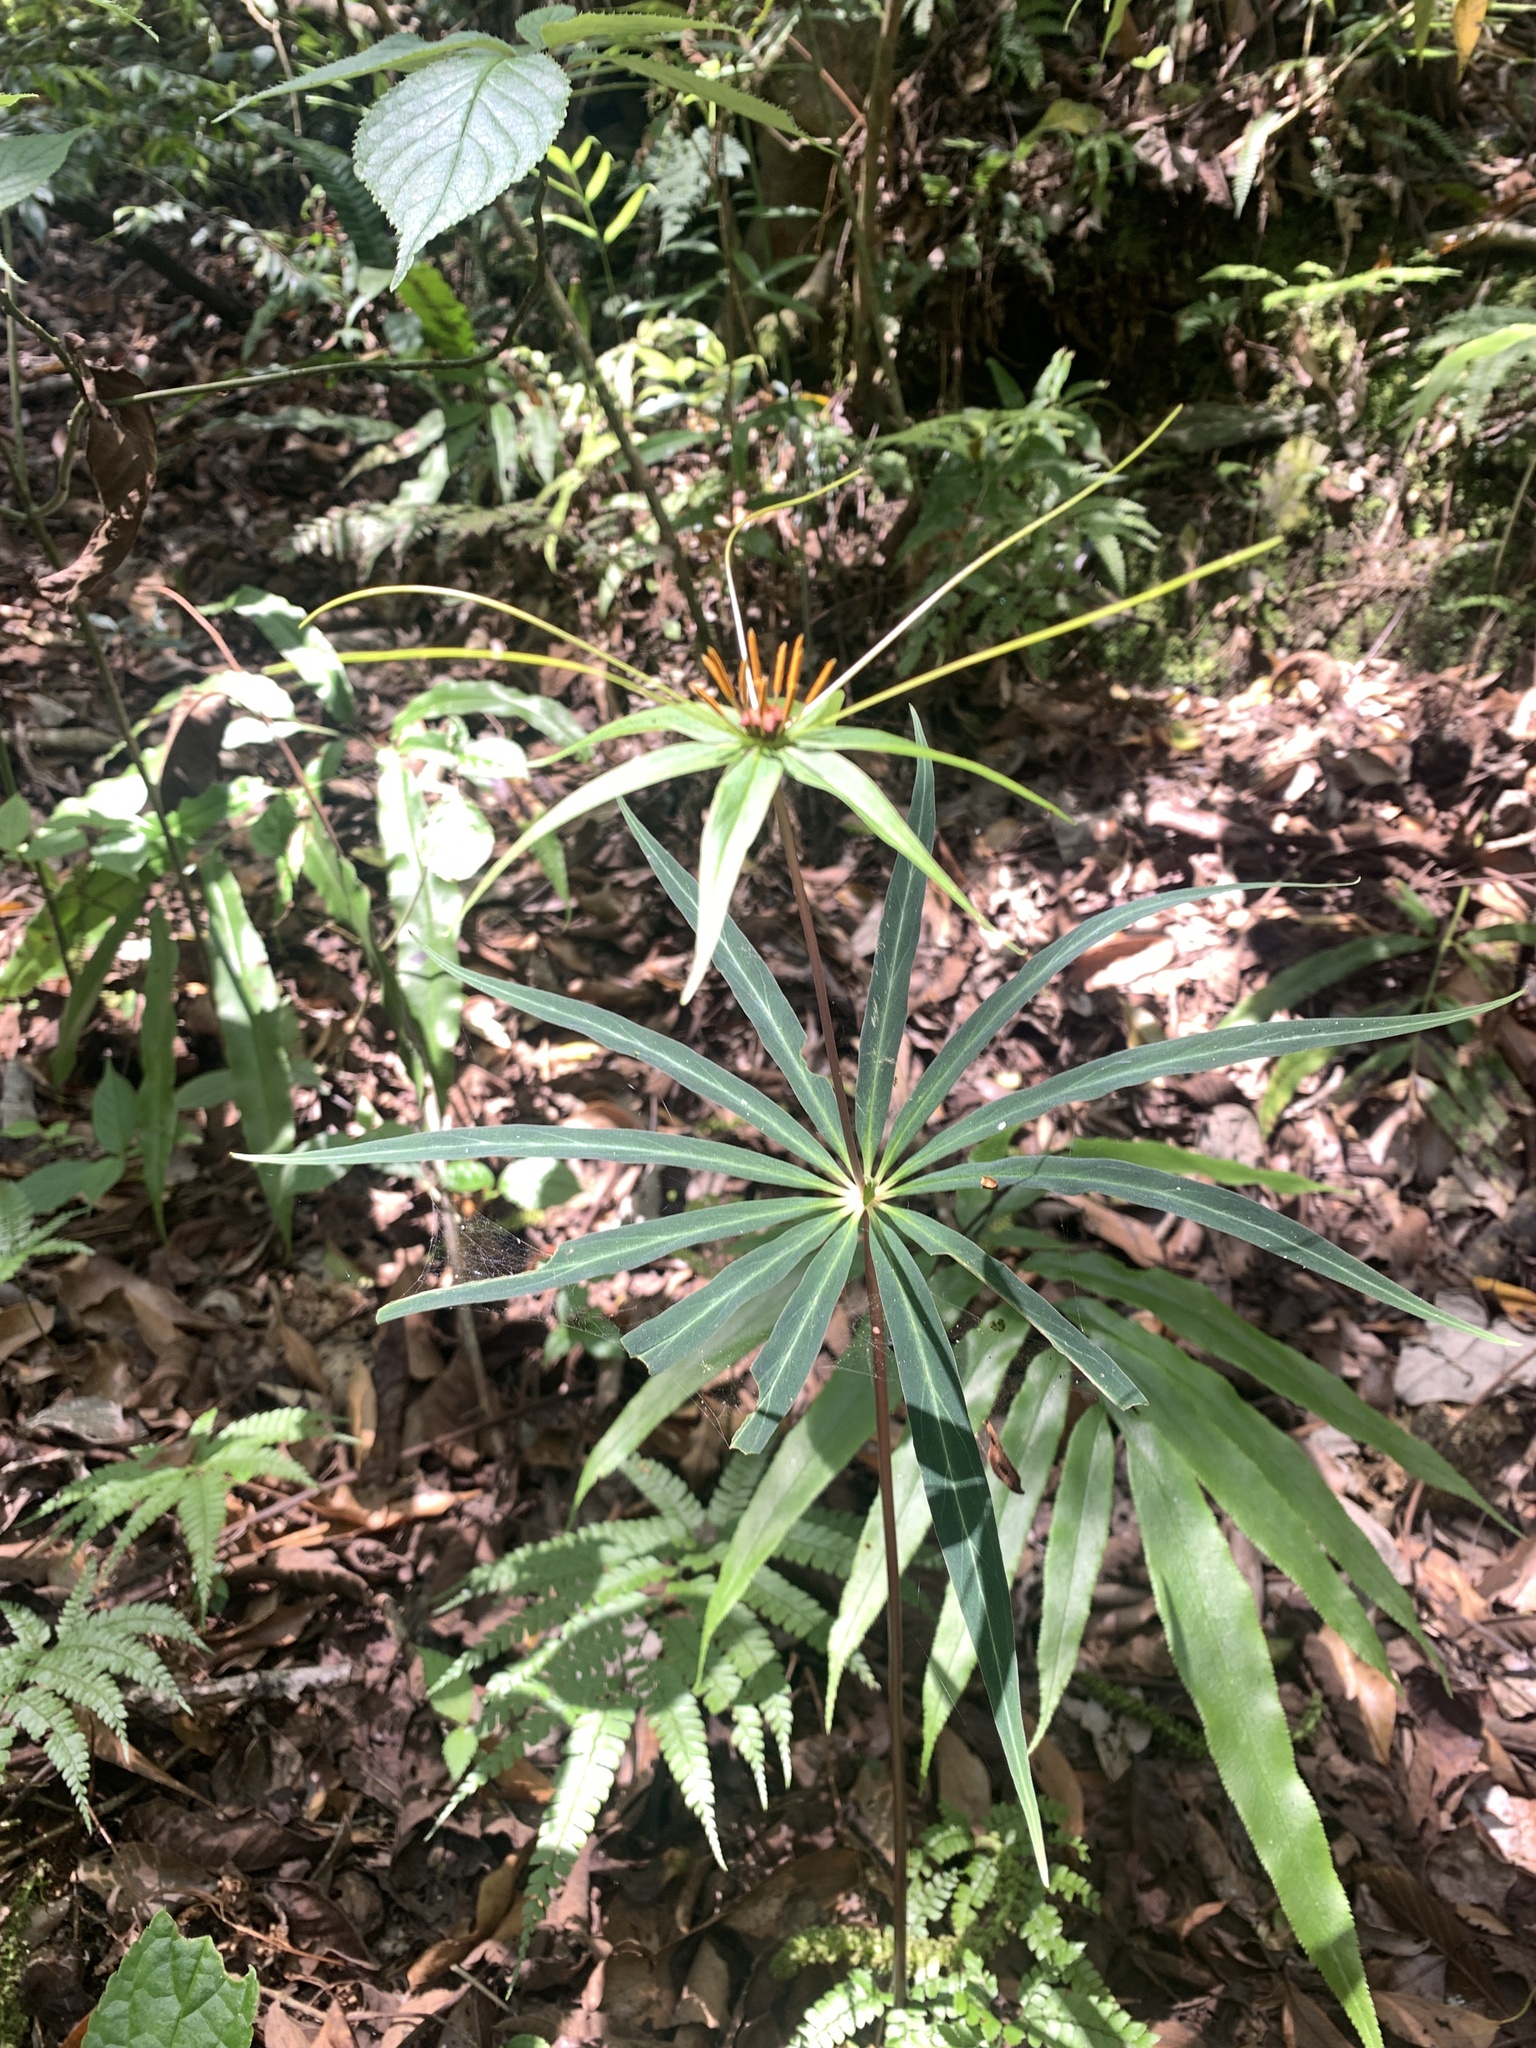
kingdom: Plantae
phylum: Tracheophyta
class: Liliopsida
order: Liliales
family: Melanthiaceae
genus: Paris
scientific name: Paris lancifolia
